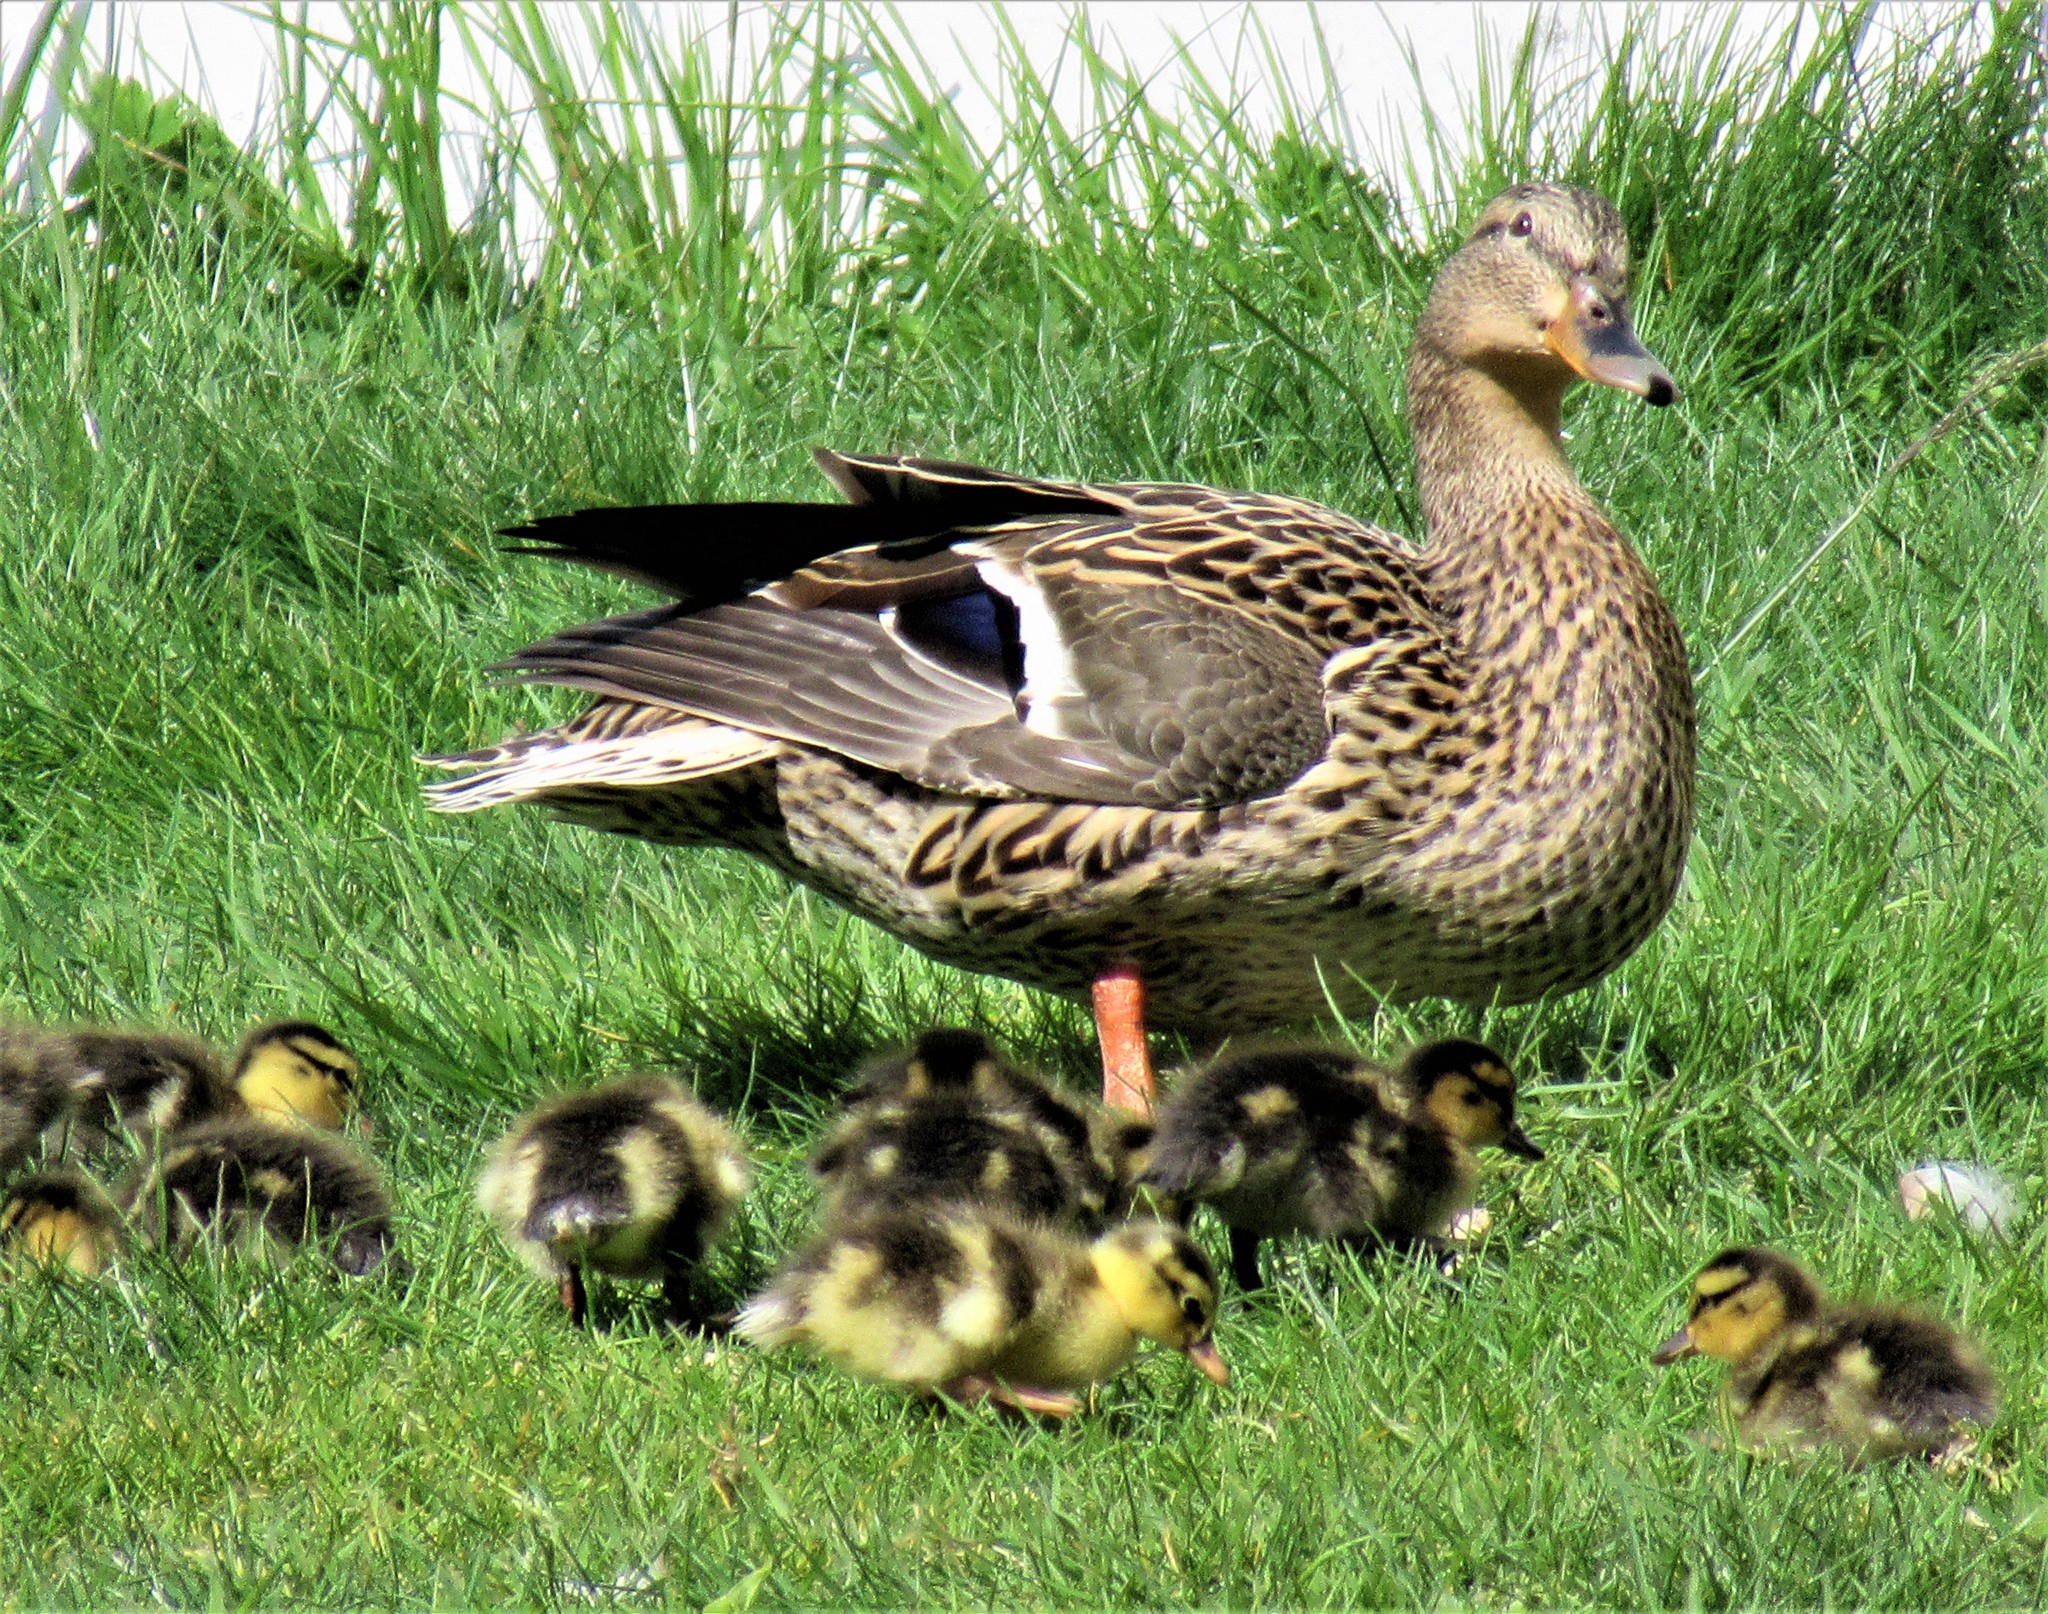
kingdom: Animalia
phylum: Chordata
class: Aves
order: Anseriformes
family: Anatidae
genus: Anas
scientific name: Anas platyrhynchos
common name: Mallard
